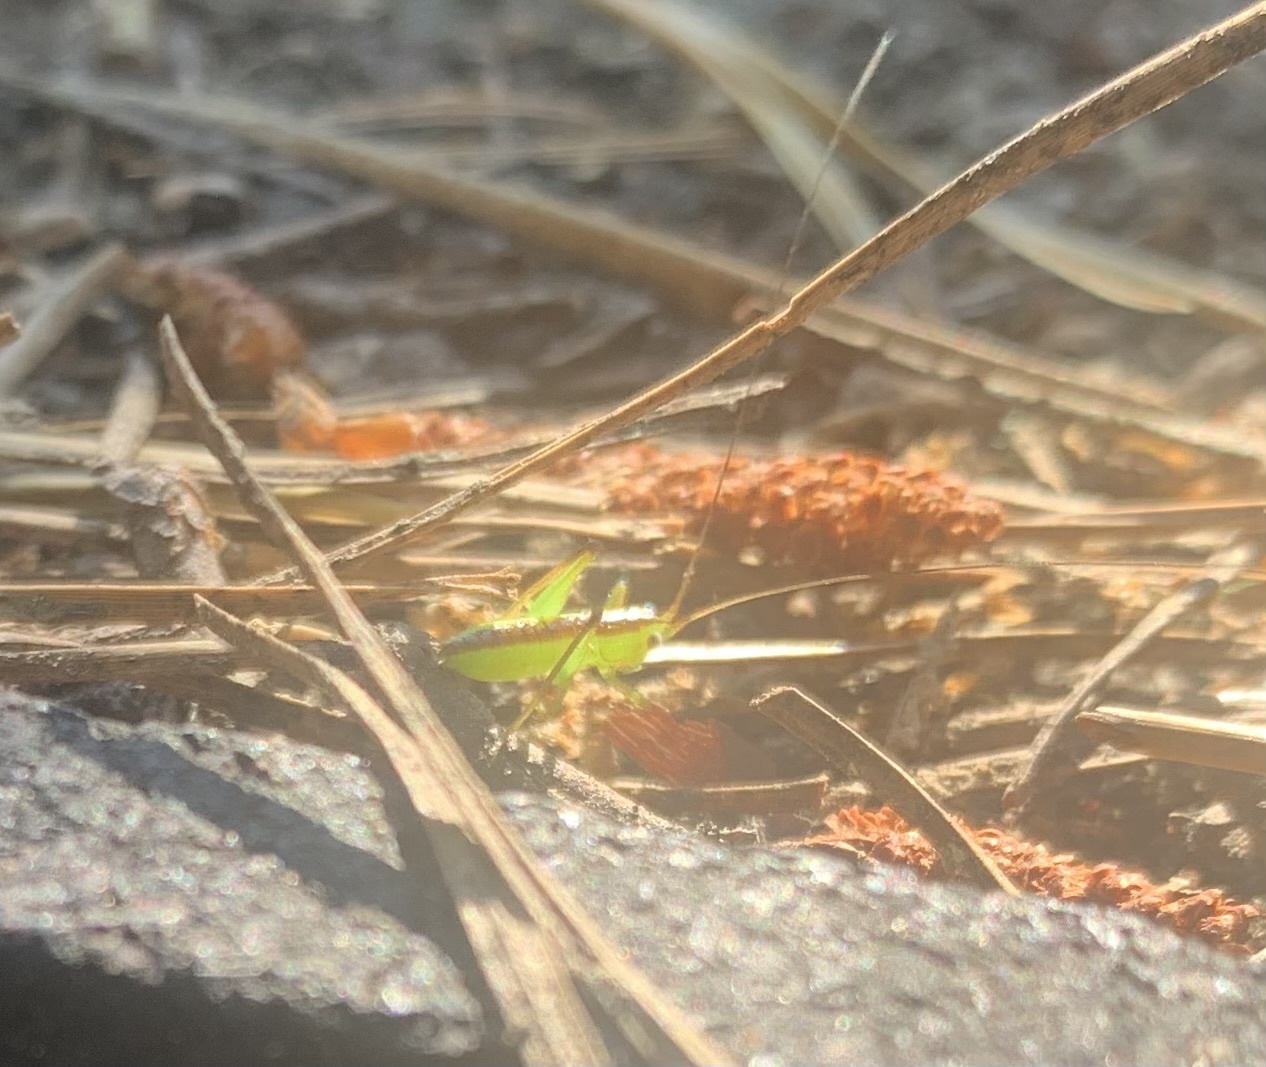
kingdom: Animalia
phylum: Arthropoda
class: Insecta
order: Orthoptera
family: Tettigoniidae
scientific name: Tettigoniidae
